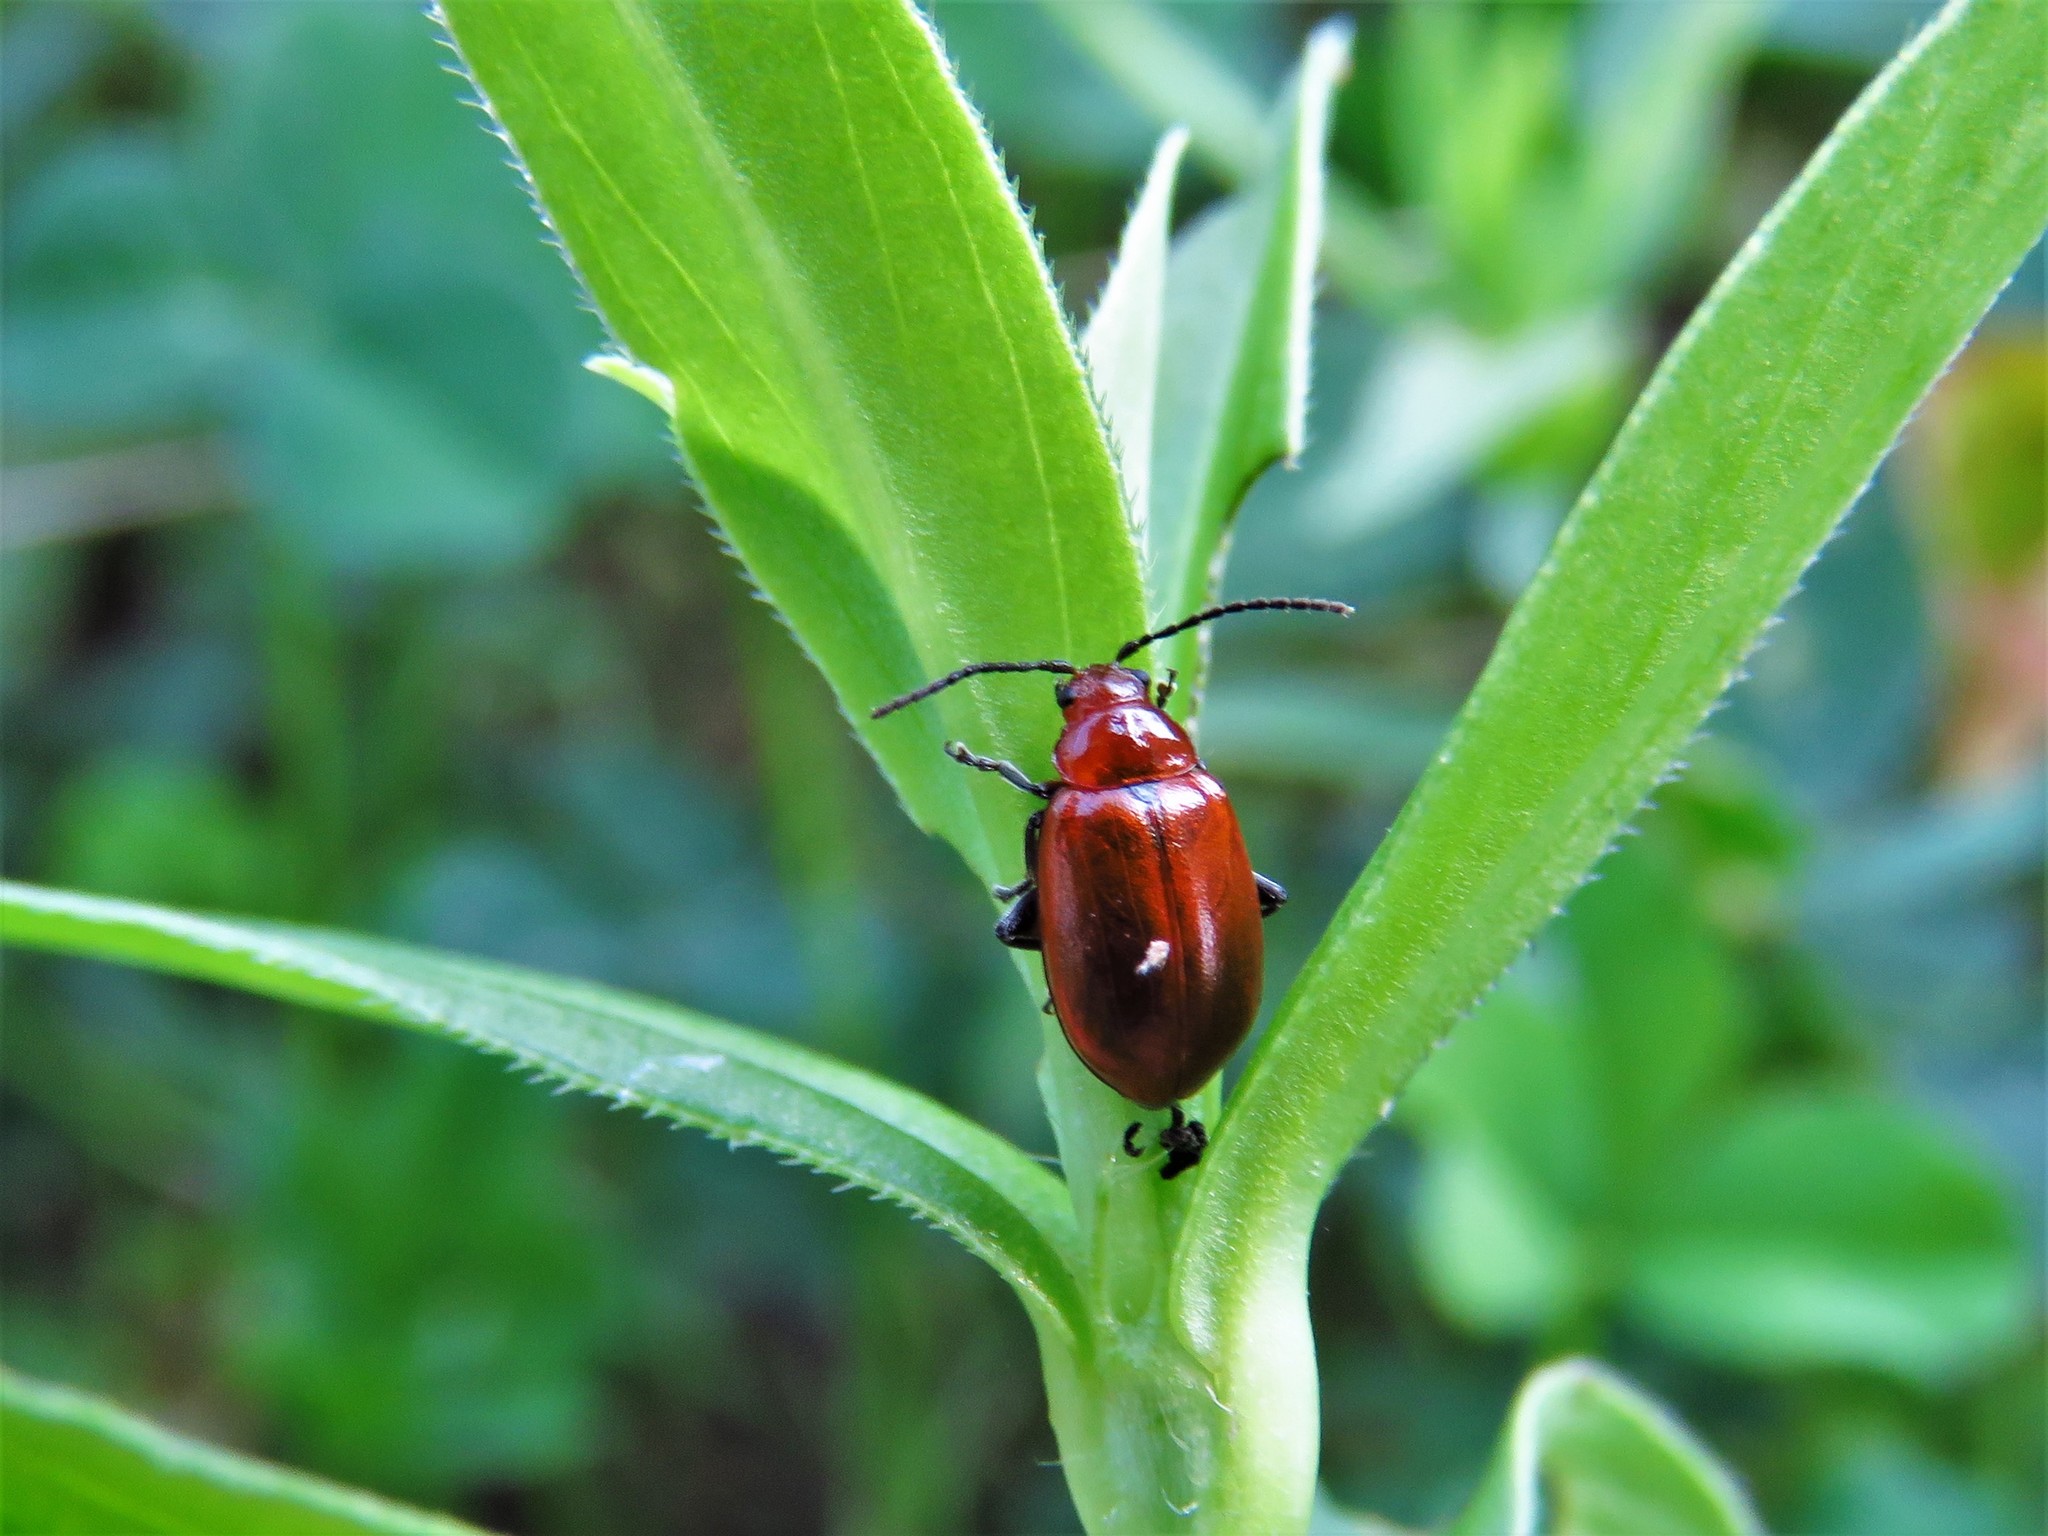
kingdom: Animalia
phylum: Arthropoda
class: Insecta
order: Coleoptera
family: Chrysomelidae
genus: Strabala
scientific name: Strabala rufa
